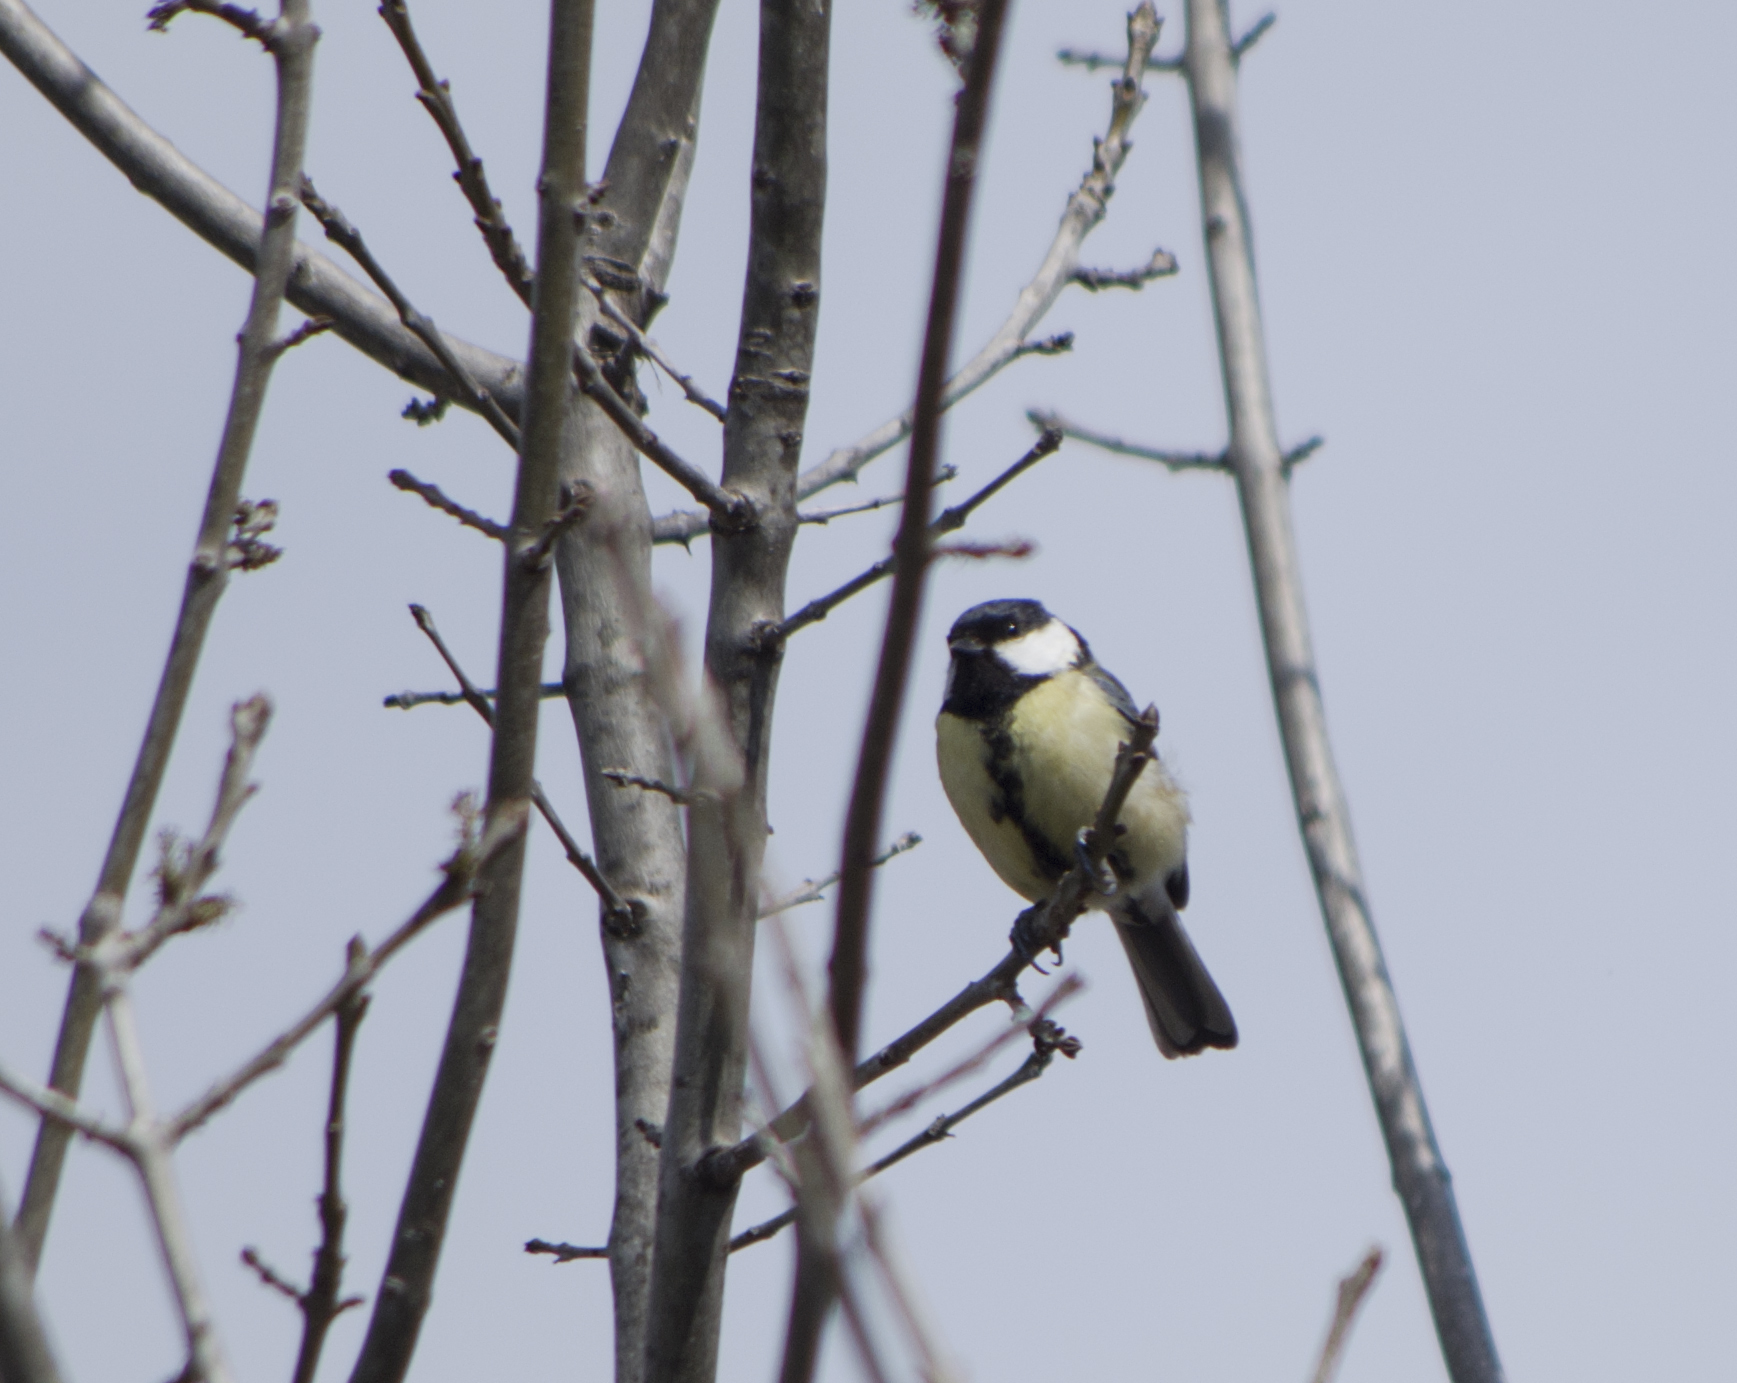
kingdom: Animalia
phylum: Chordata
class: Aves
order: Passeriformes
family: Paridae
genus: Parus
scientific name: Parus major
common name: Great tit
